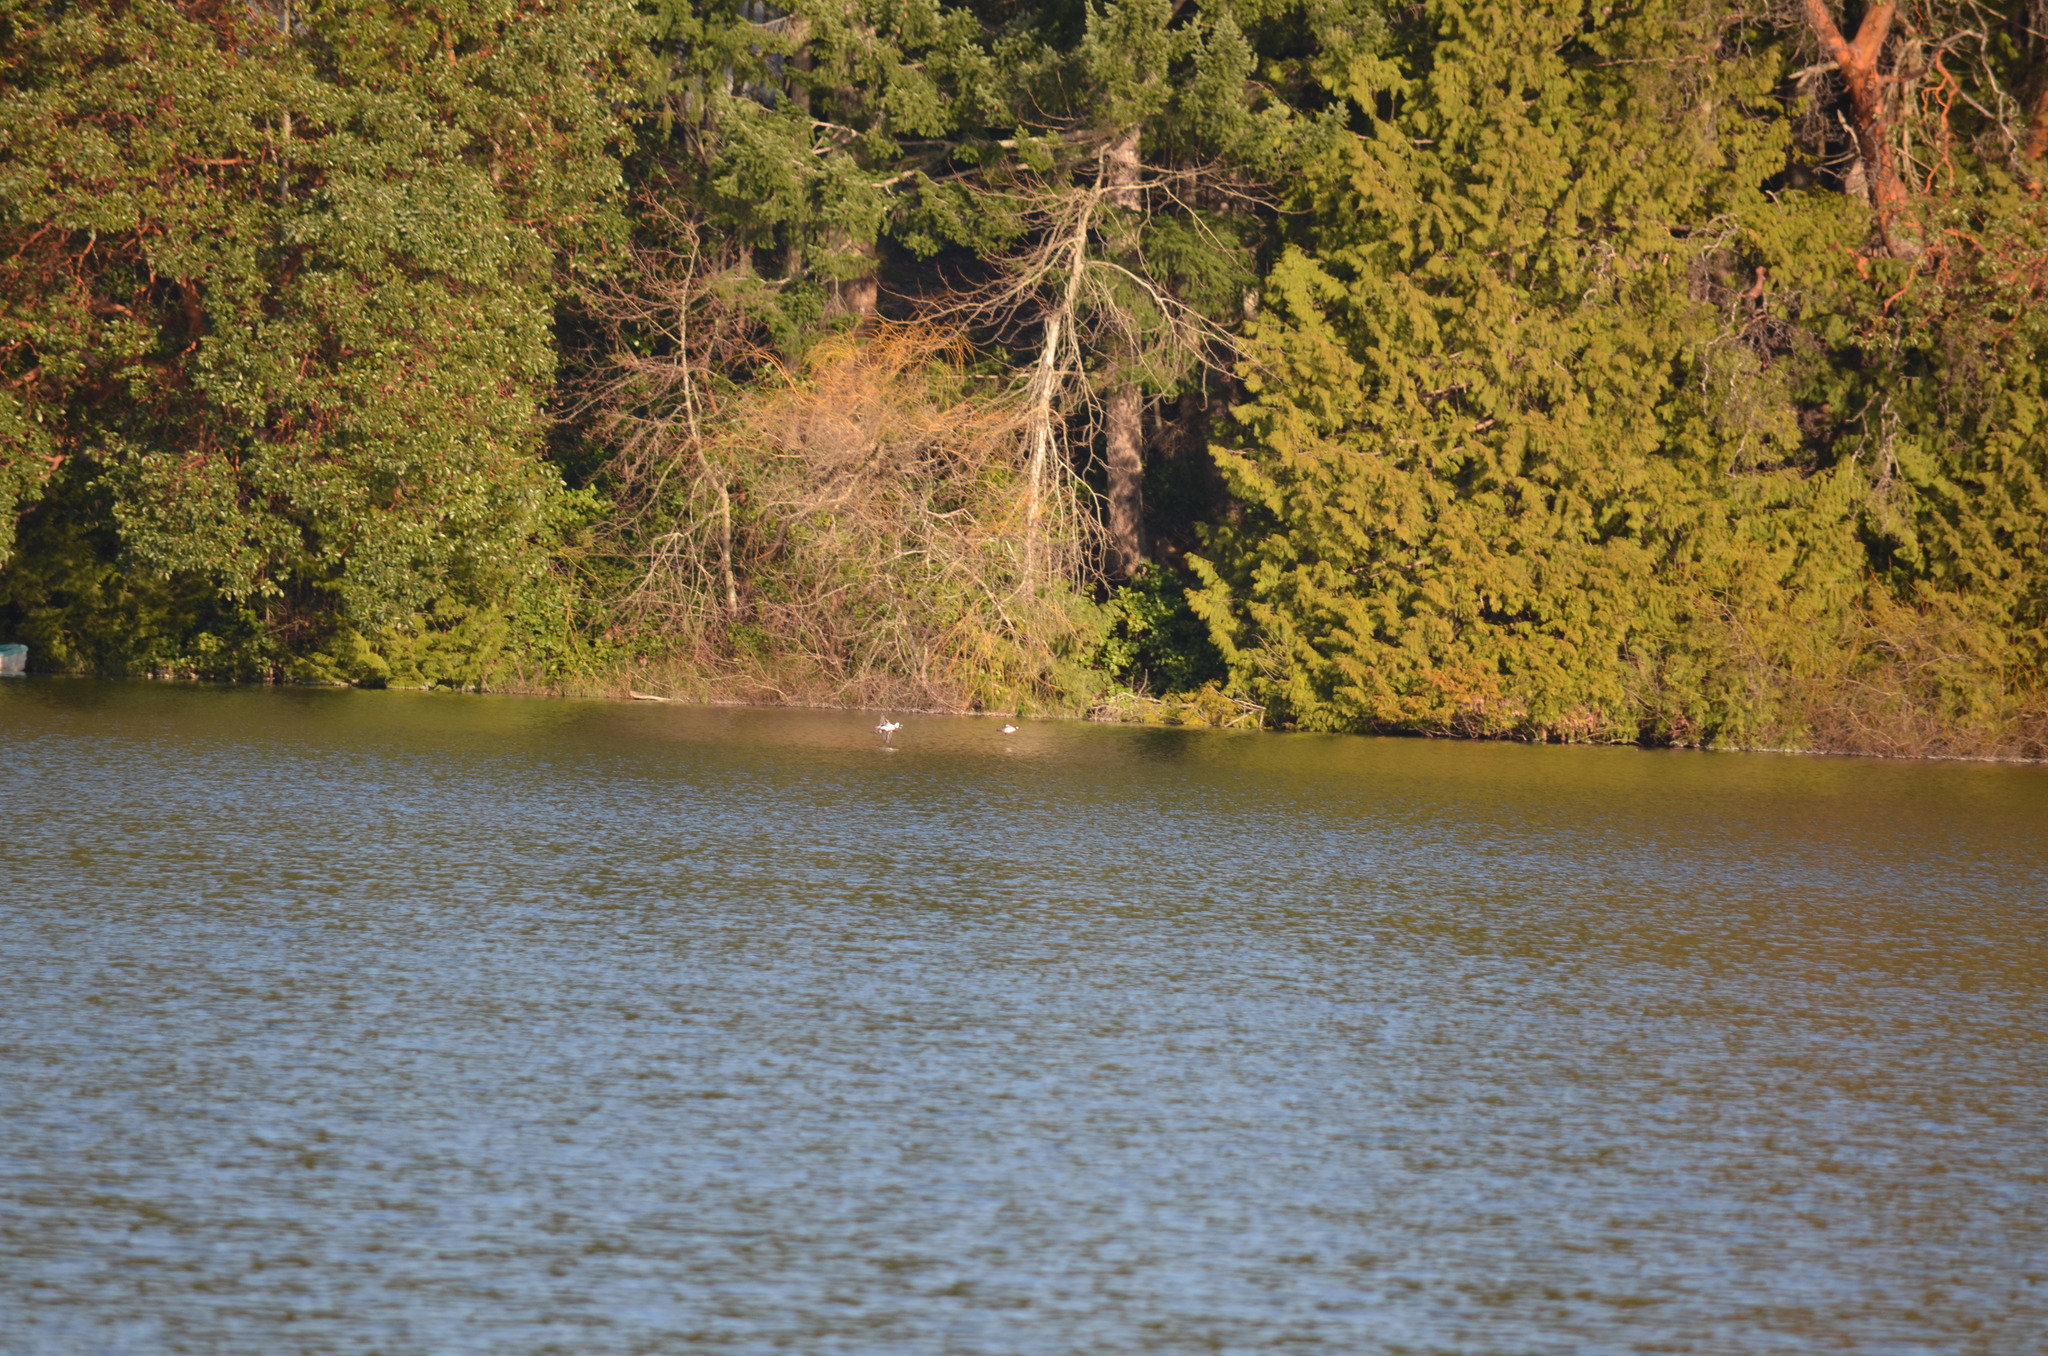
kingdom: Animalia
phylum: Chordata
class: Aves
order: Anseriformes
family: Anatidae
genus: Bucephala
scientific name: Bucephala albeola
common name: Bufflehead
